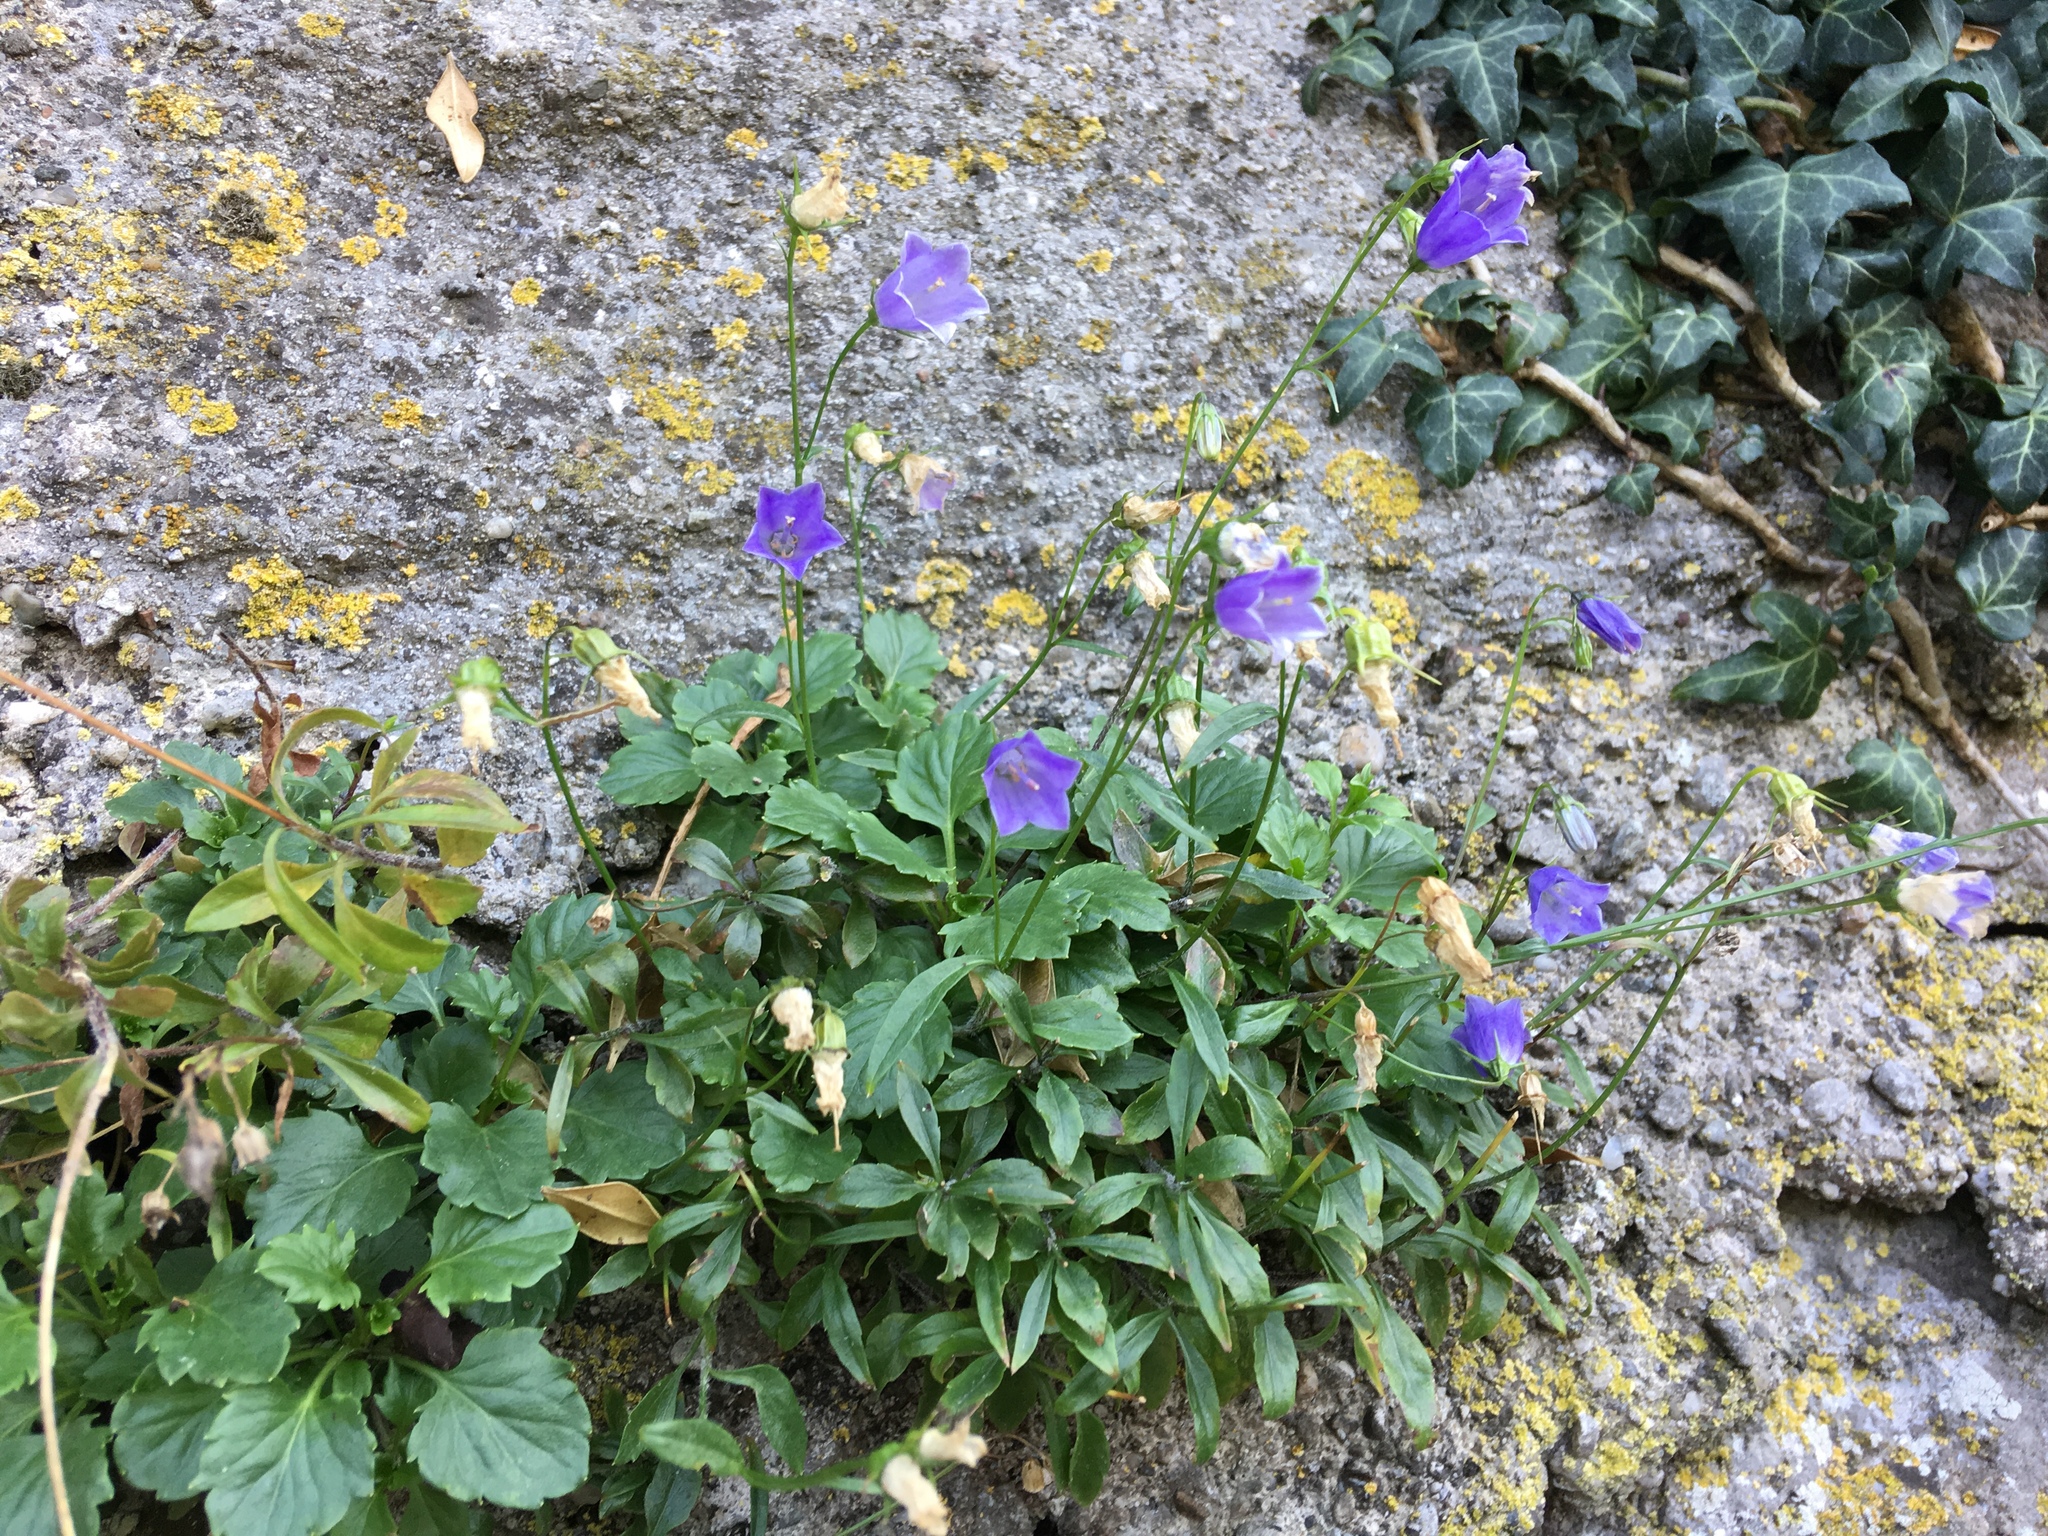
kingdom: Plantae
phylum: Tracheophyta
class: Magnoliopsida
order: Asterales
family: Campanulaceae
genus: Campanula
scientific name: Campanula cochleariifolia
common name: Fairies'-thimbles
